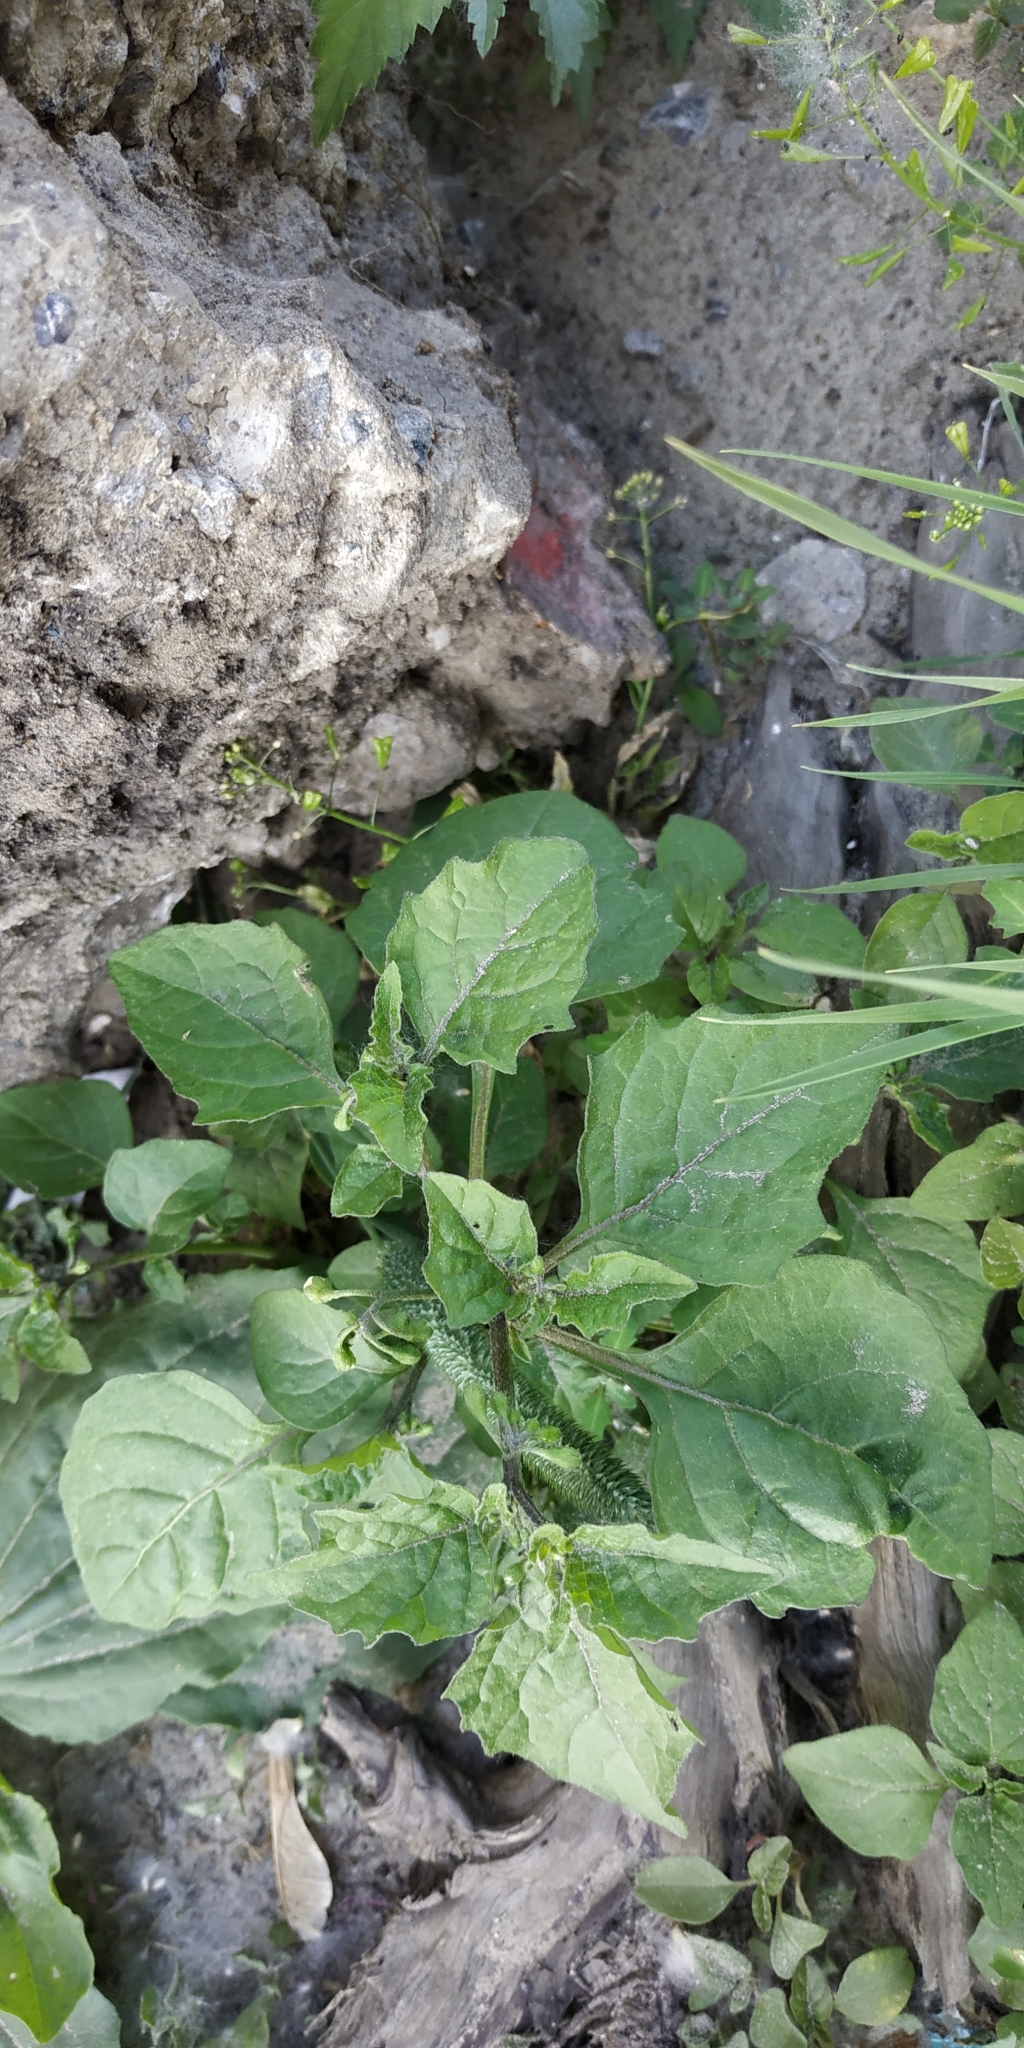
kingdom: Plantae
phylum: Tracheophyta
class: Magnoliopsida
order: Solanales
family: Solanaceae
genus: Solanum
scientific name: Solanum nigrum
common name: Black nightshade
